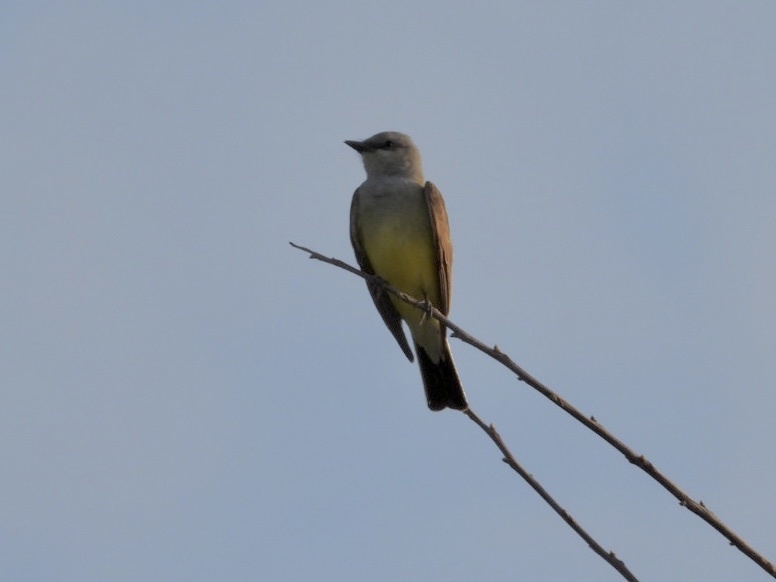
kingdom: Animalia
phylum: Chordata
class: Aves
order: Passeriformes
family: Tyrannidae
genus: Tyrannus
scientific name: Tyrannus verticalis
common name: Western kingbird
